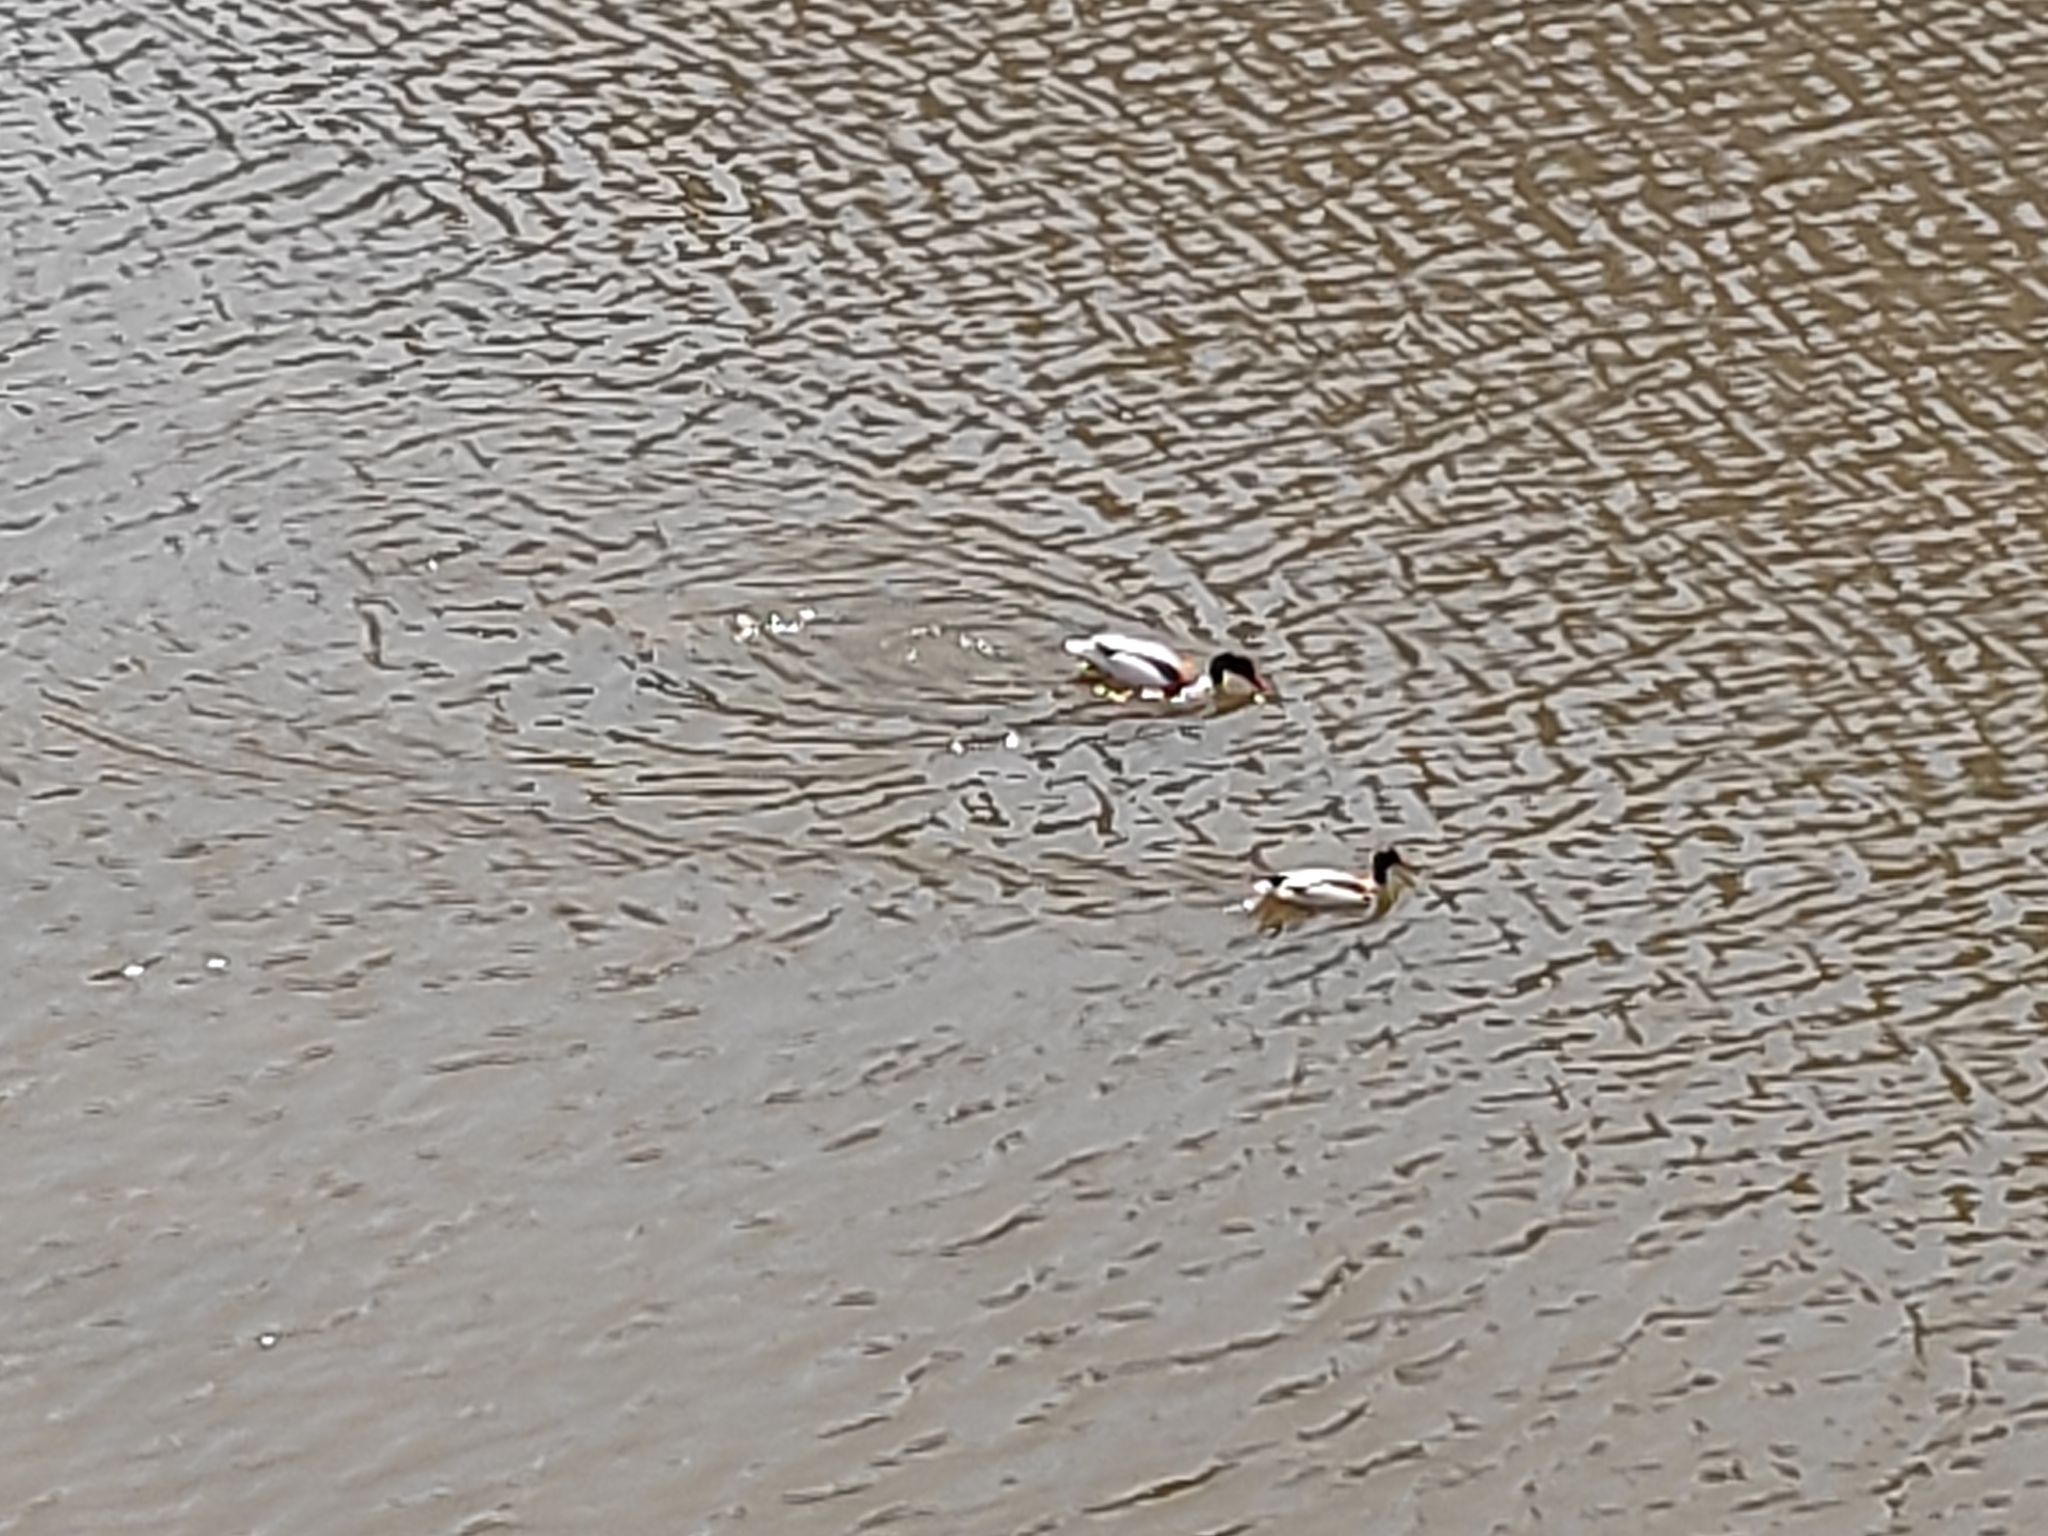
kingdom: Animalia
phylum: Chordata
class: Aves
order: Anseriformes
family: Anatidae
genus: Tadorna
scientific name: Tadorna tadorna
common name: Common shelduck
